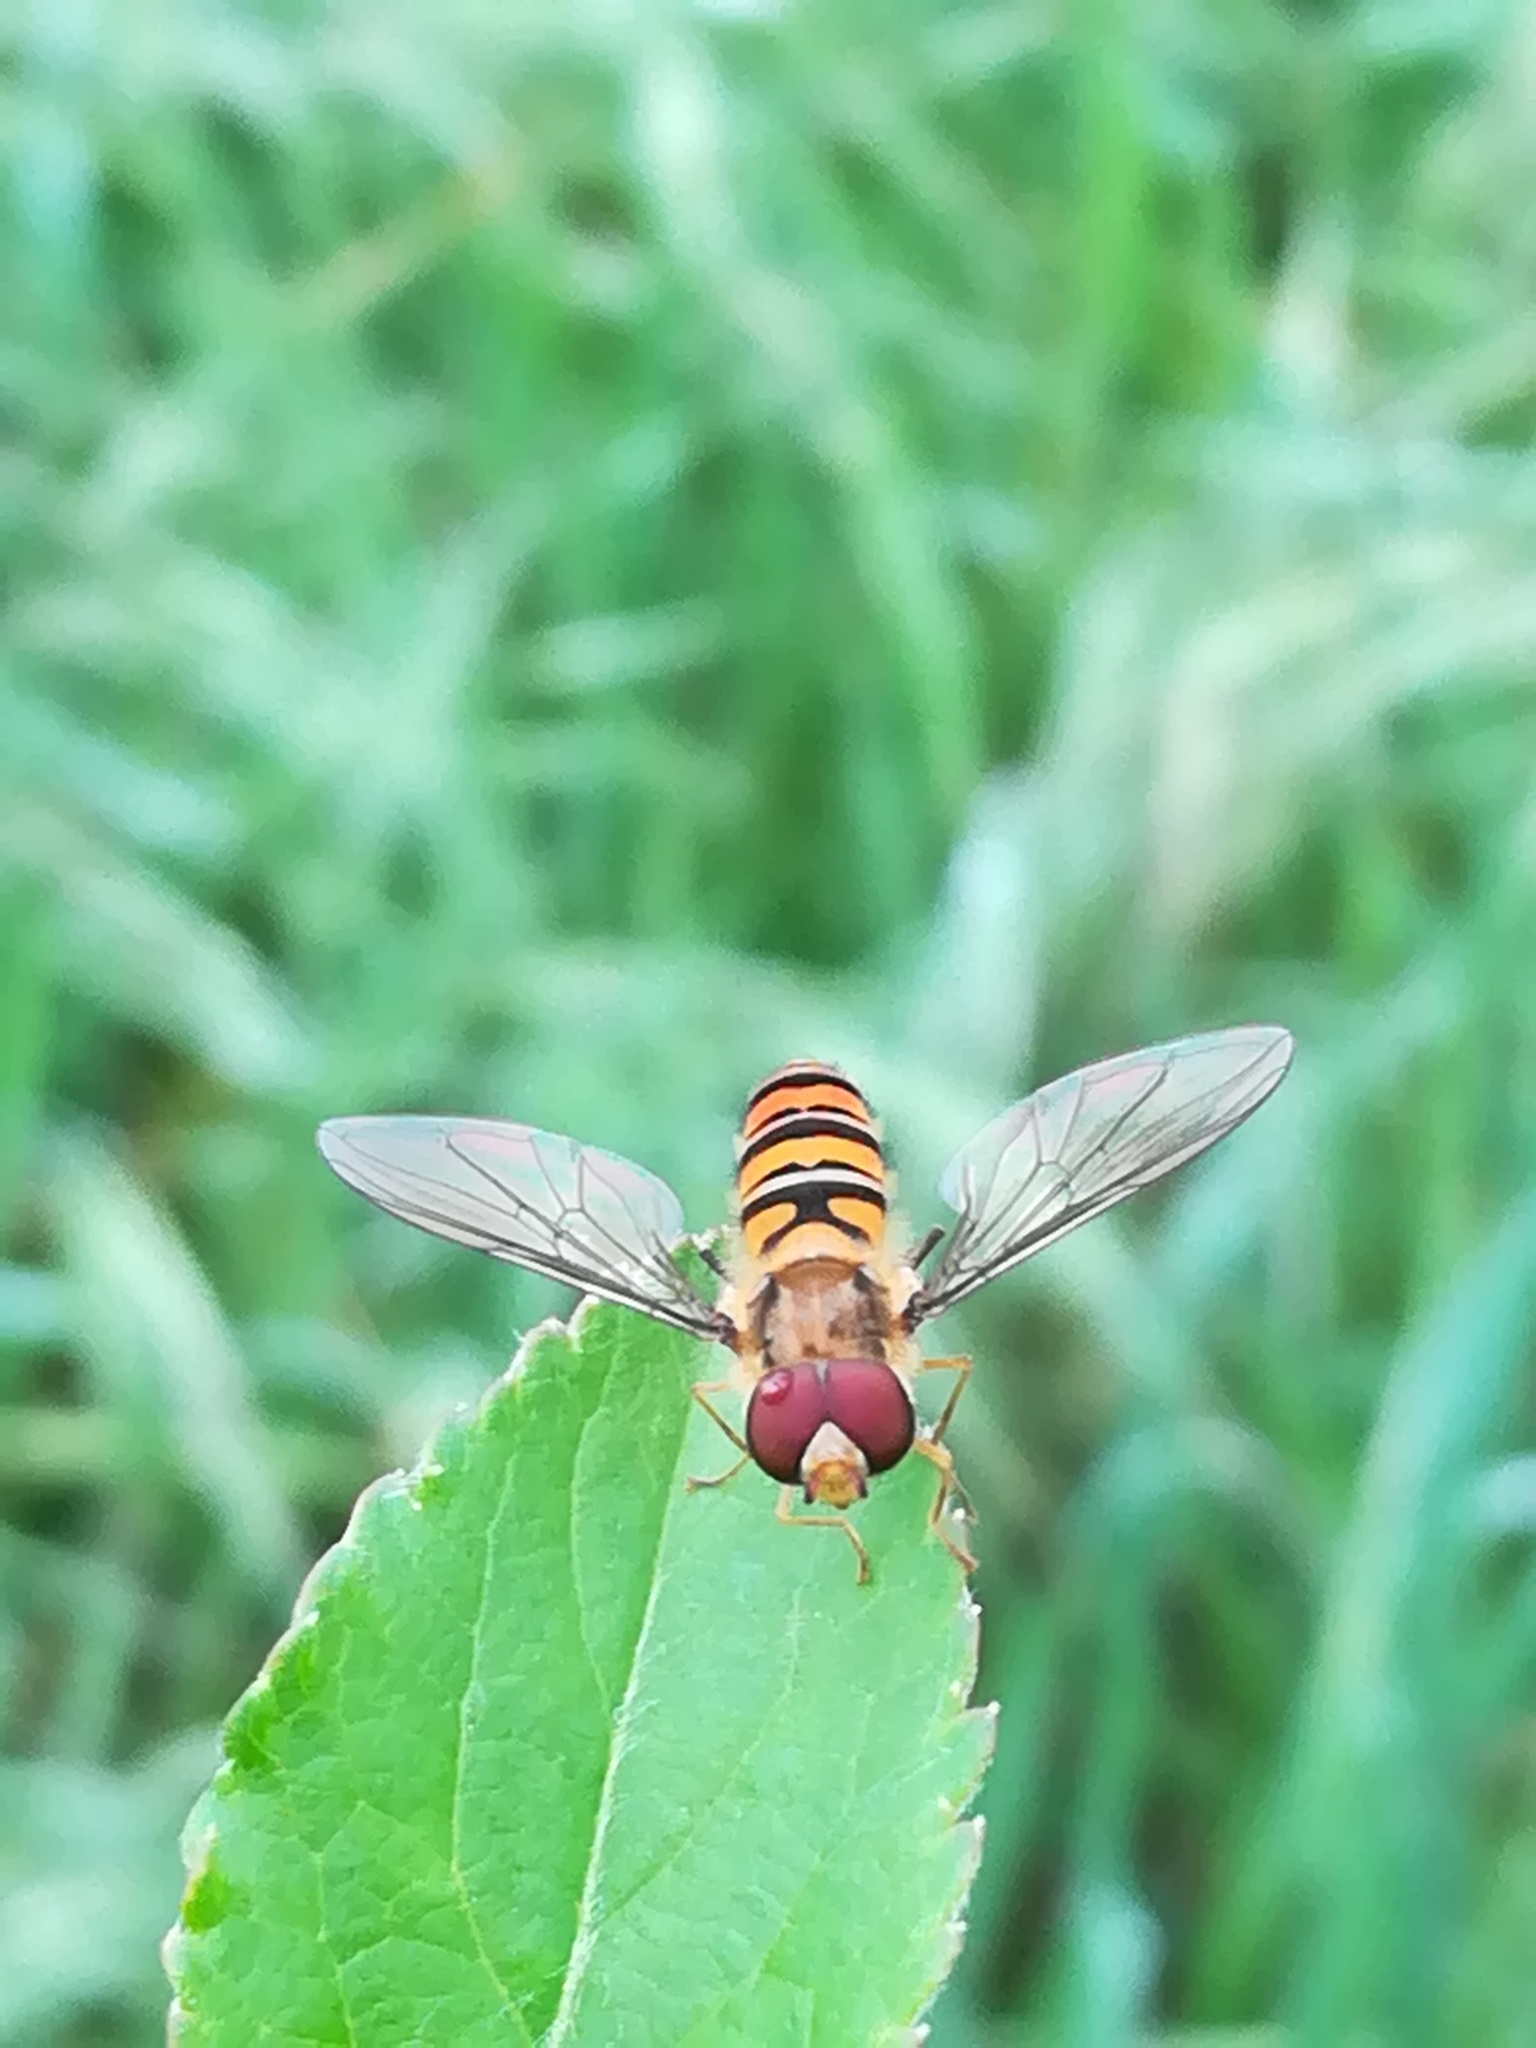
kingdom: Animalia
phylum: Arthropoda
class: Insecta
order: Diptera
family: Syrphidae
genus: Episyrphus
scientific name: Episyrphus balteatus
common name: Marmalade hoverfly
